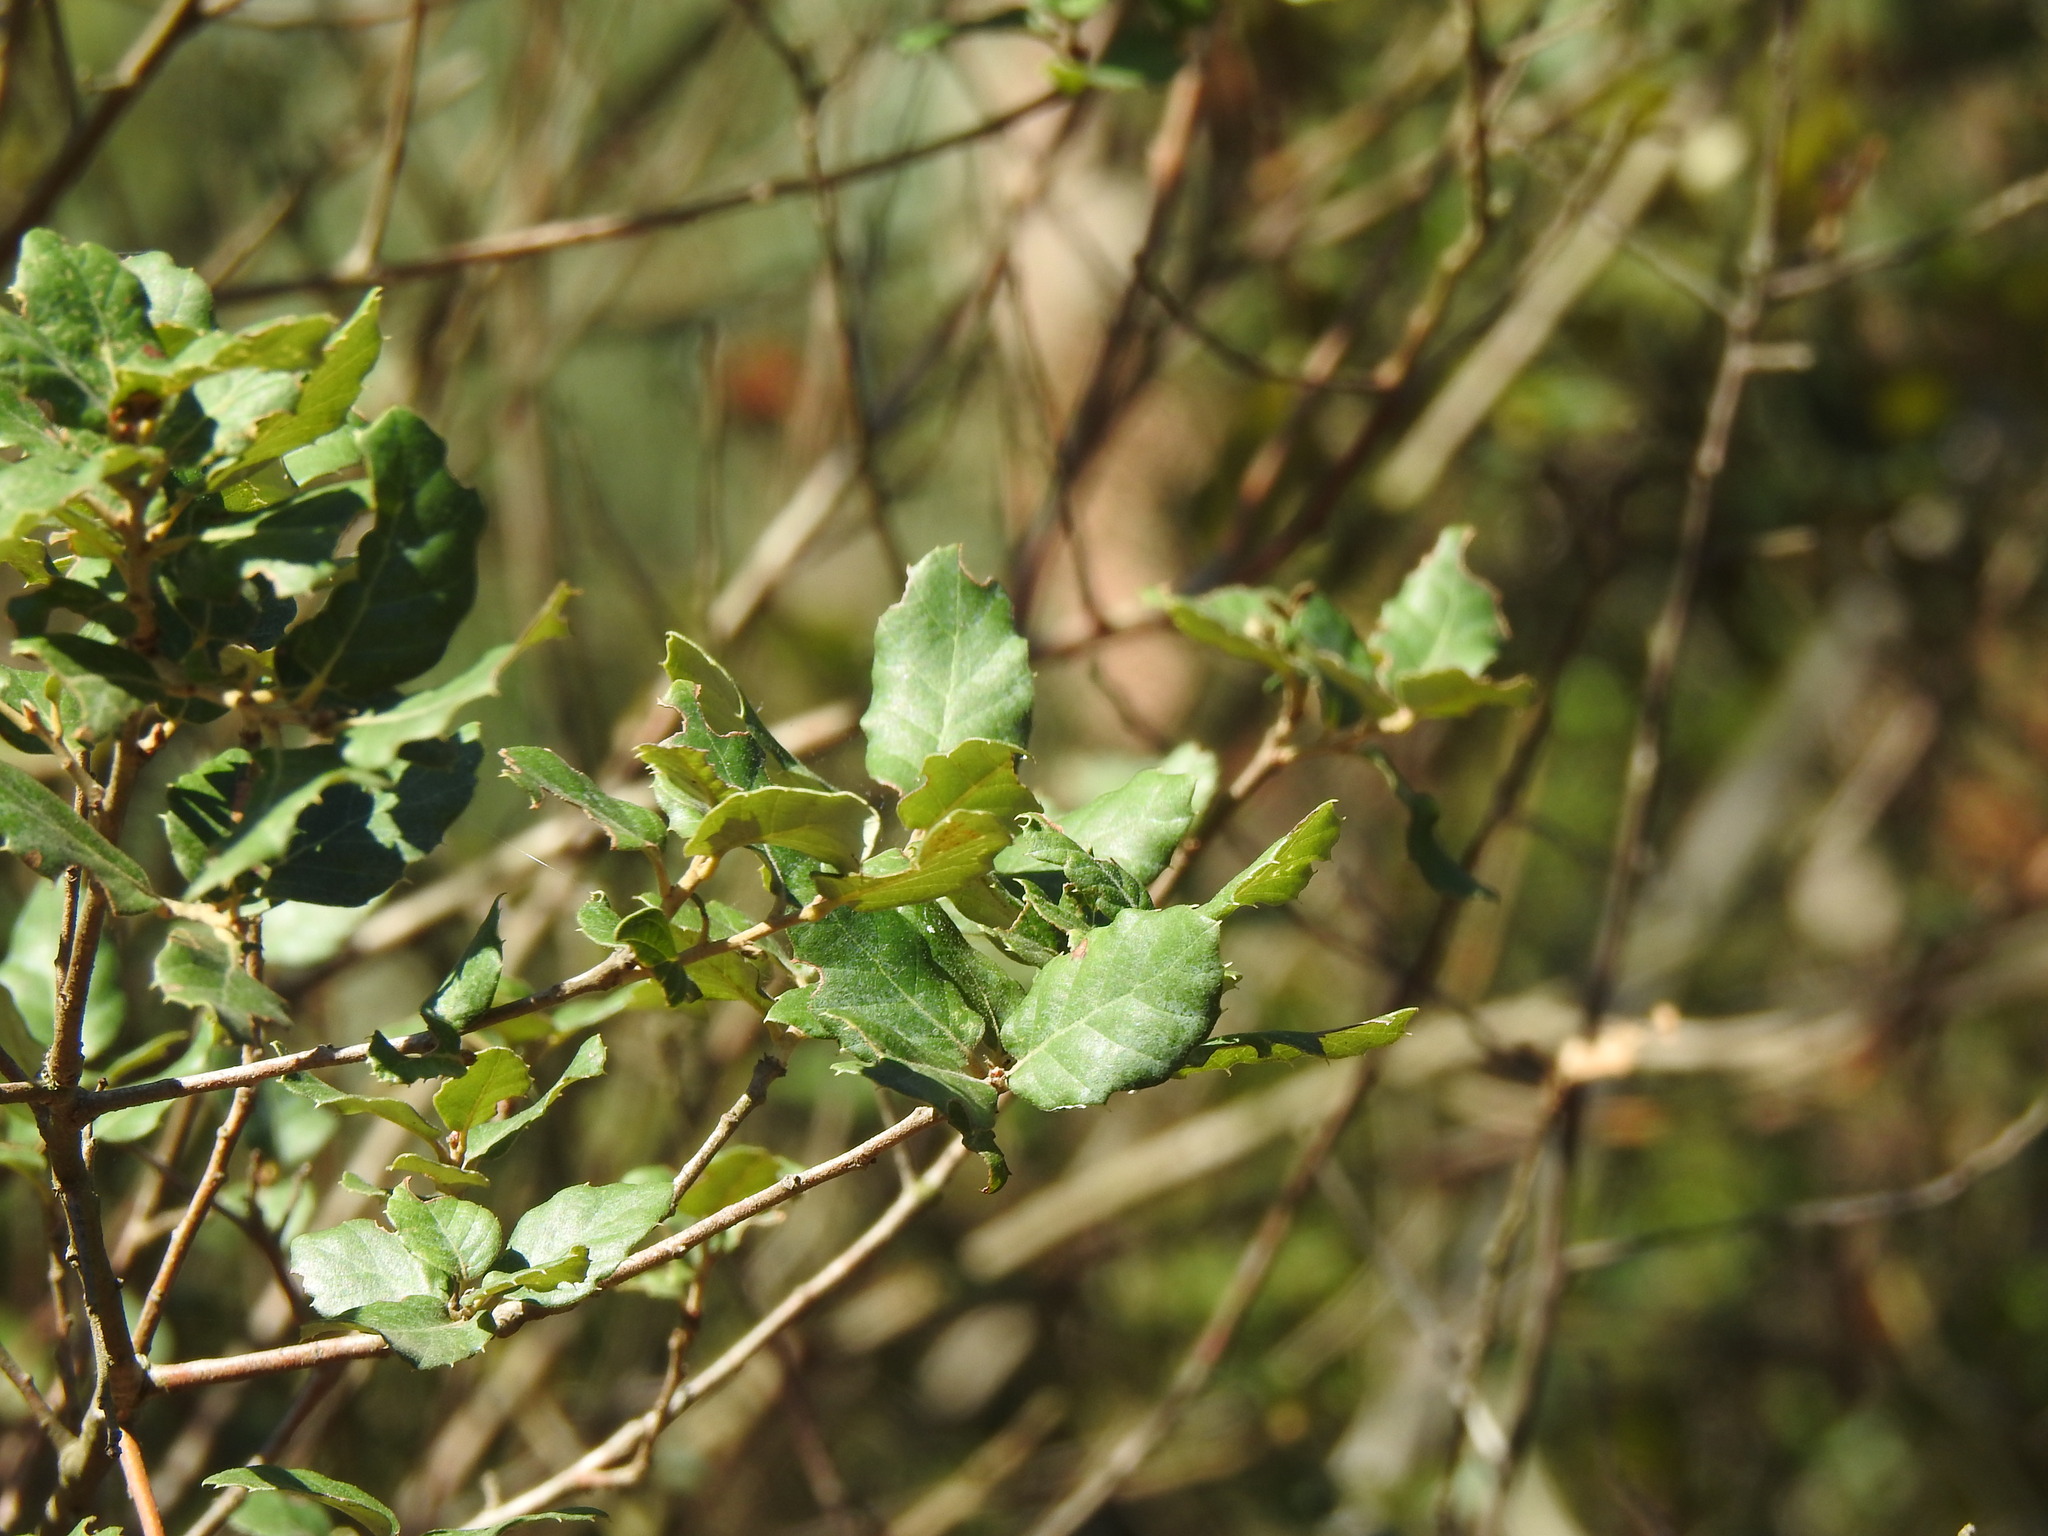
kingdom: Plantae
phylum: Tracheophyta
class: Magnoliopsida
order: Fagales
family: Fagaceae
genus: Quercus
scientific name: Quercus suber
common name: Cork oak
